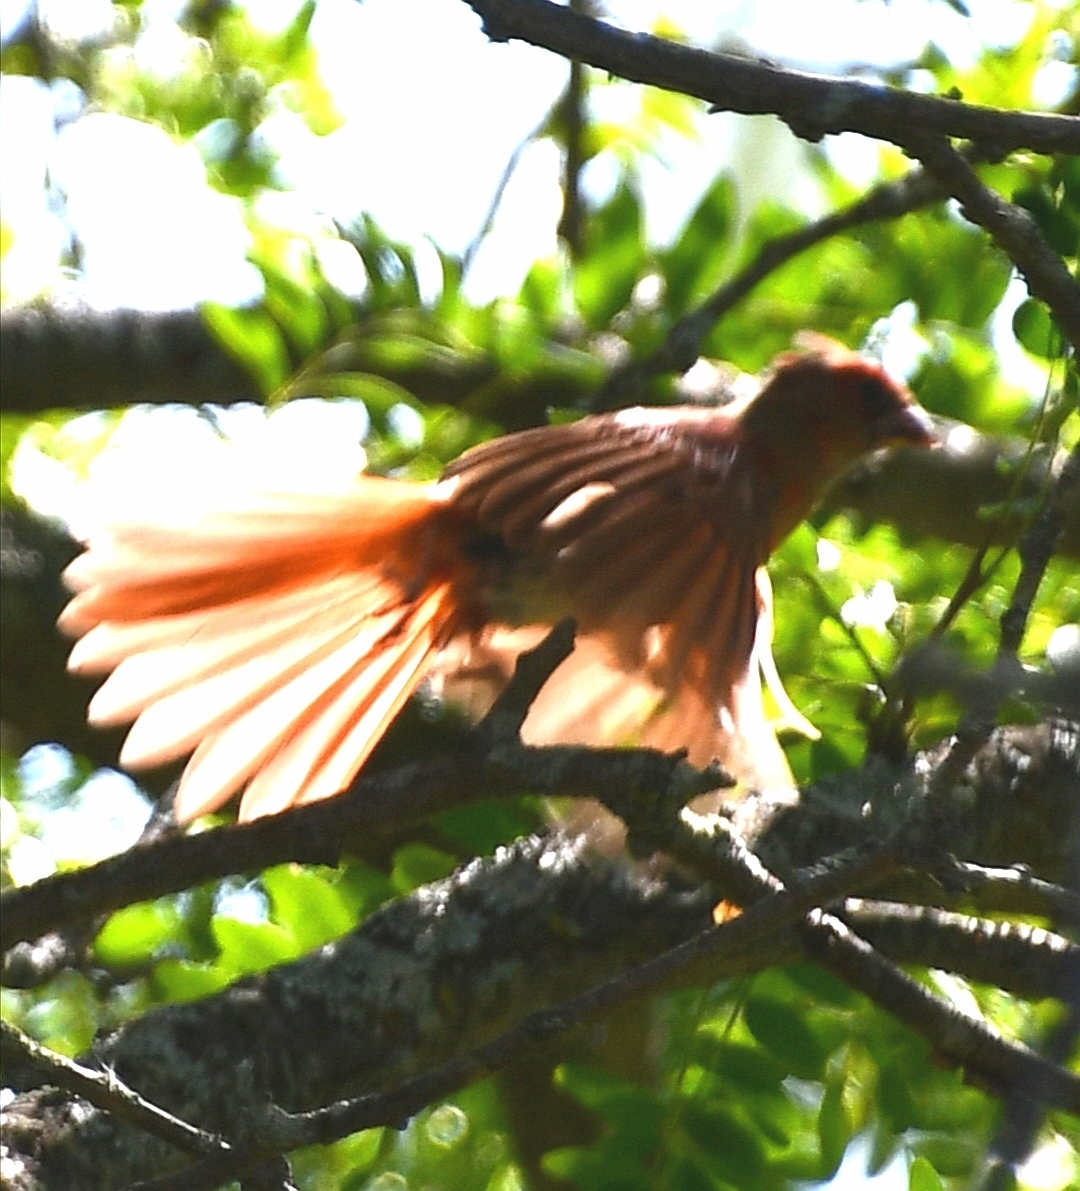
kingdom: Animalia
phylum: Chordata
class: Aves
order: Passeriformes
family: Cardinalidae
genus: Cardinalis
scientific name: Cardinalis cardinalis
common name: Northern cardinal
